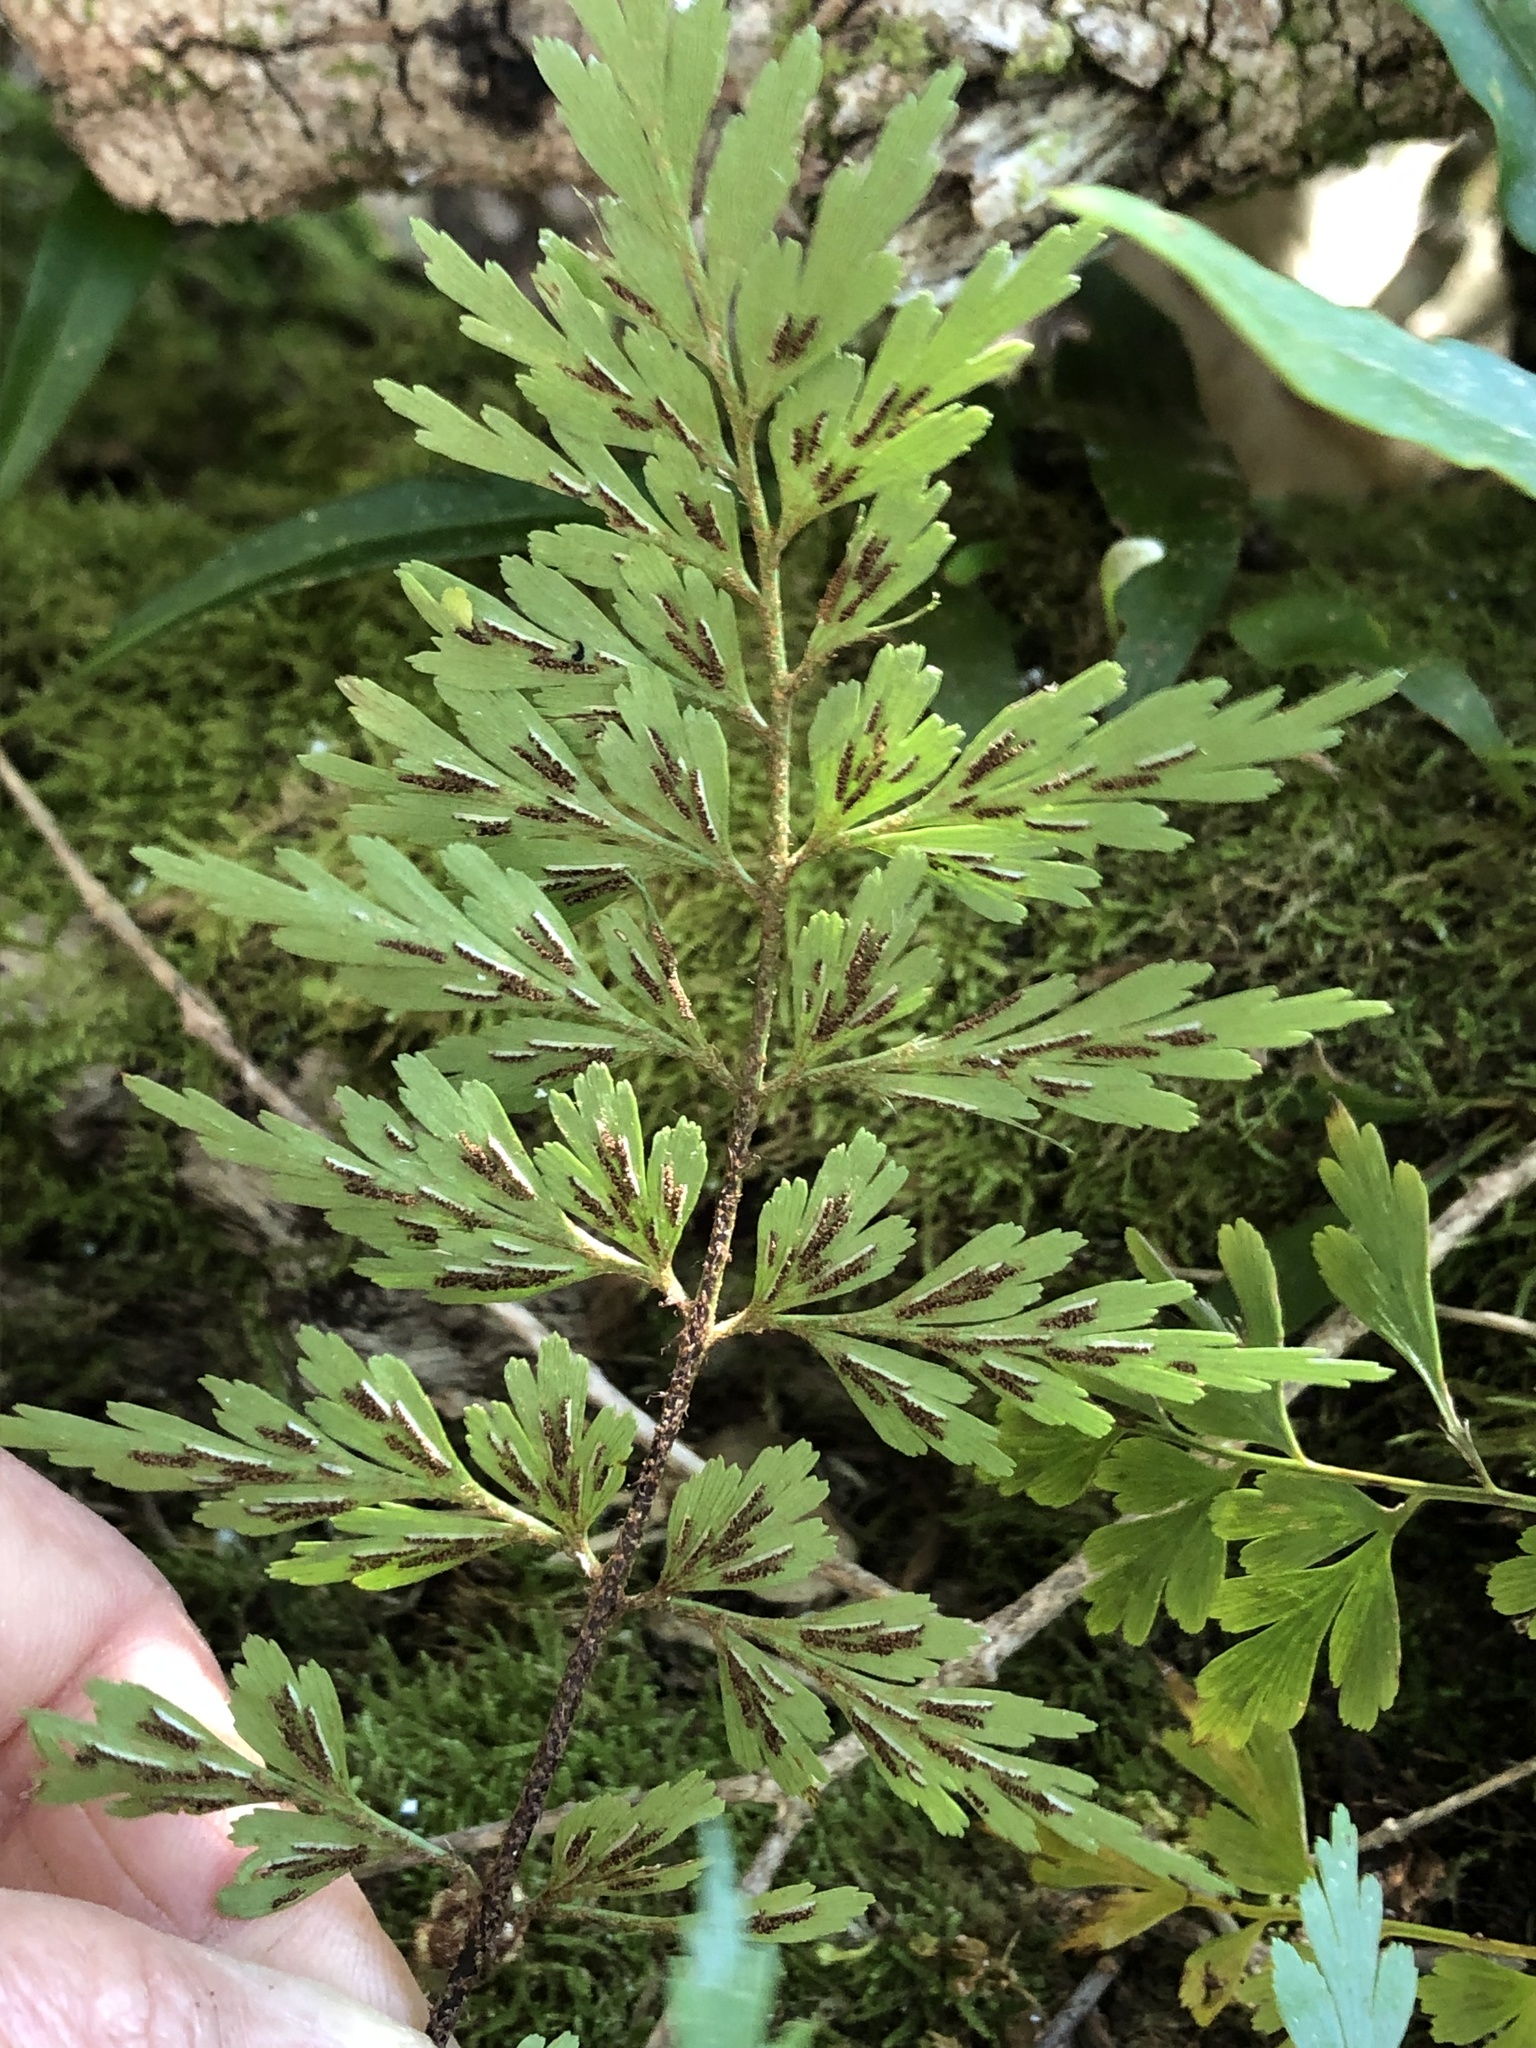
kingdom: Plantae
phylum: Tracheophyta
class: Polypodiopsida
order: Polypodiales
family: Aspleniaceae
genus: Asplenium
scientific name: Asplenium aethiopicum
